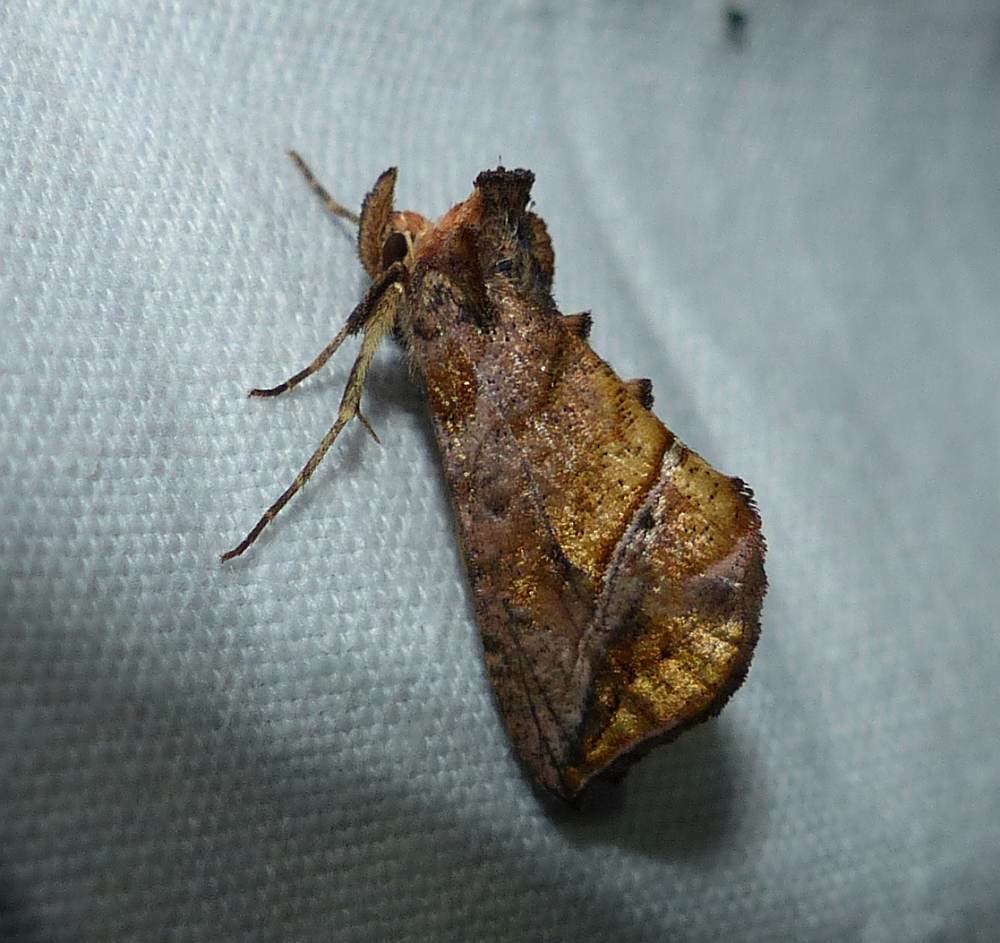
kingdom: Animalia
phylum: Arthropoda
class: Insecta
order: Lepidoptera
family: Noctuidae
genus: Pseudeva
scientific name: Pseudeva purpurigera
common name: Straight-lined looper moth
